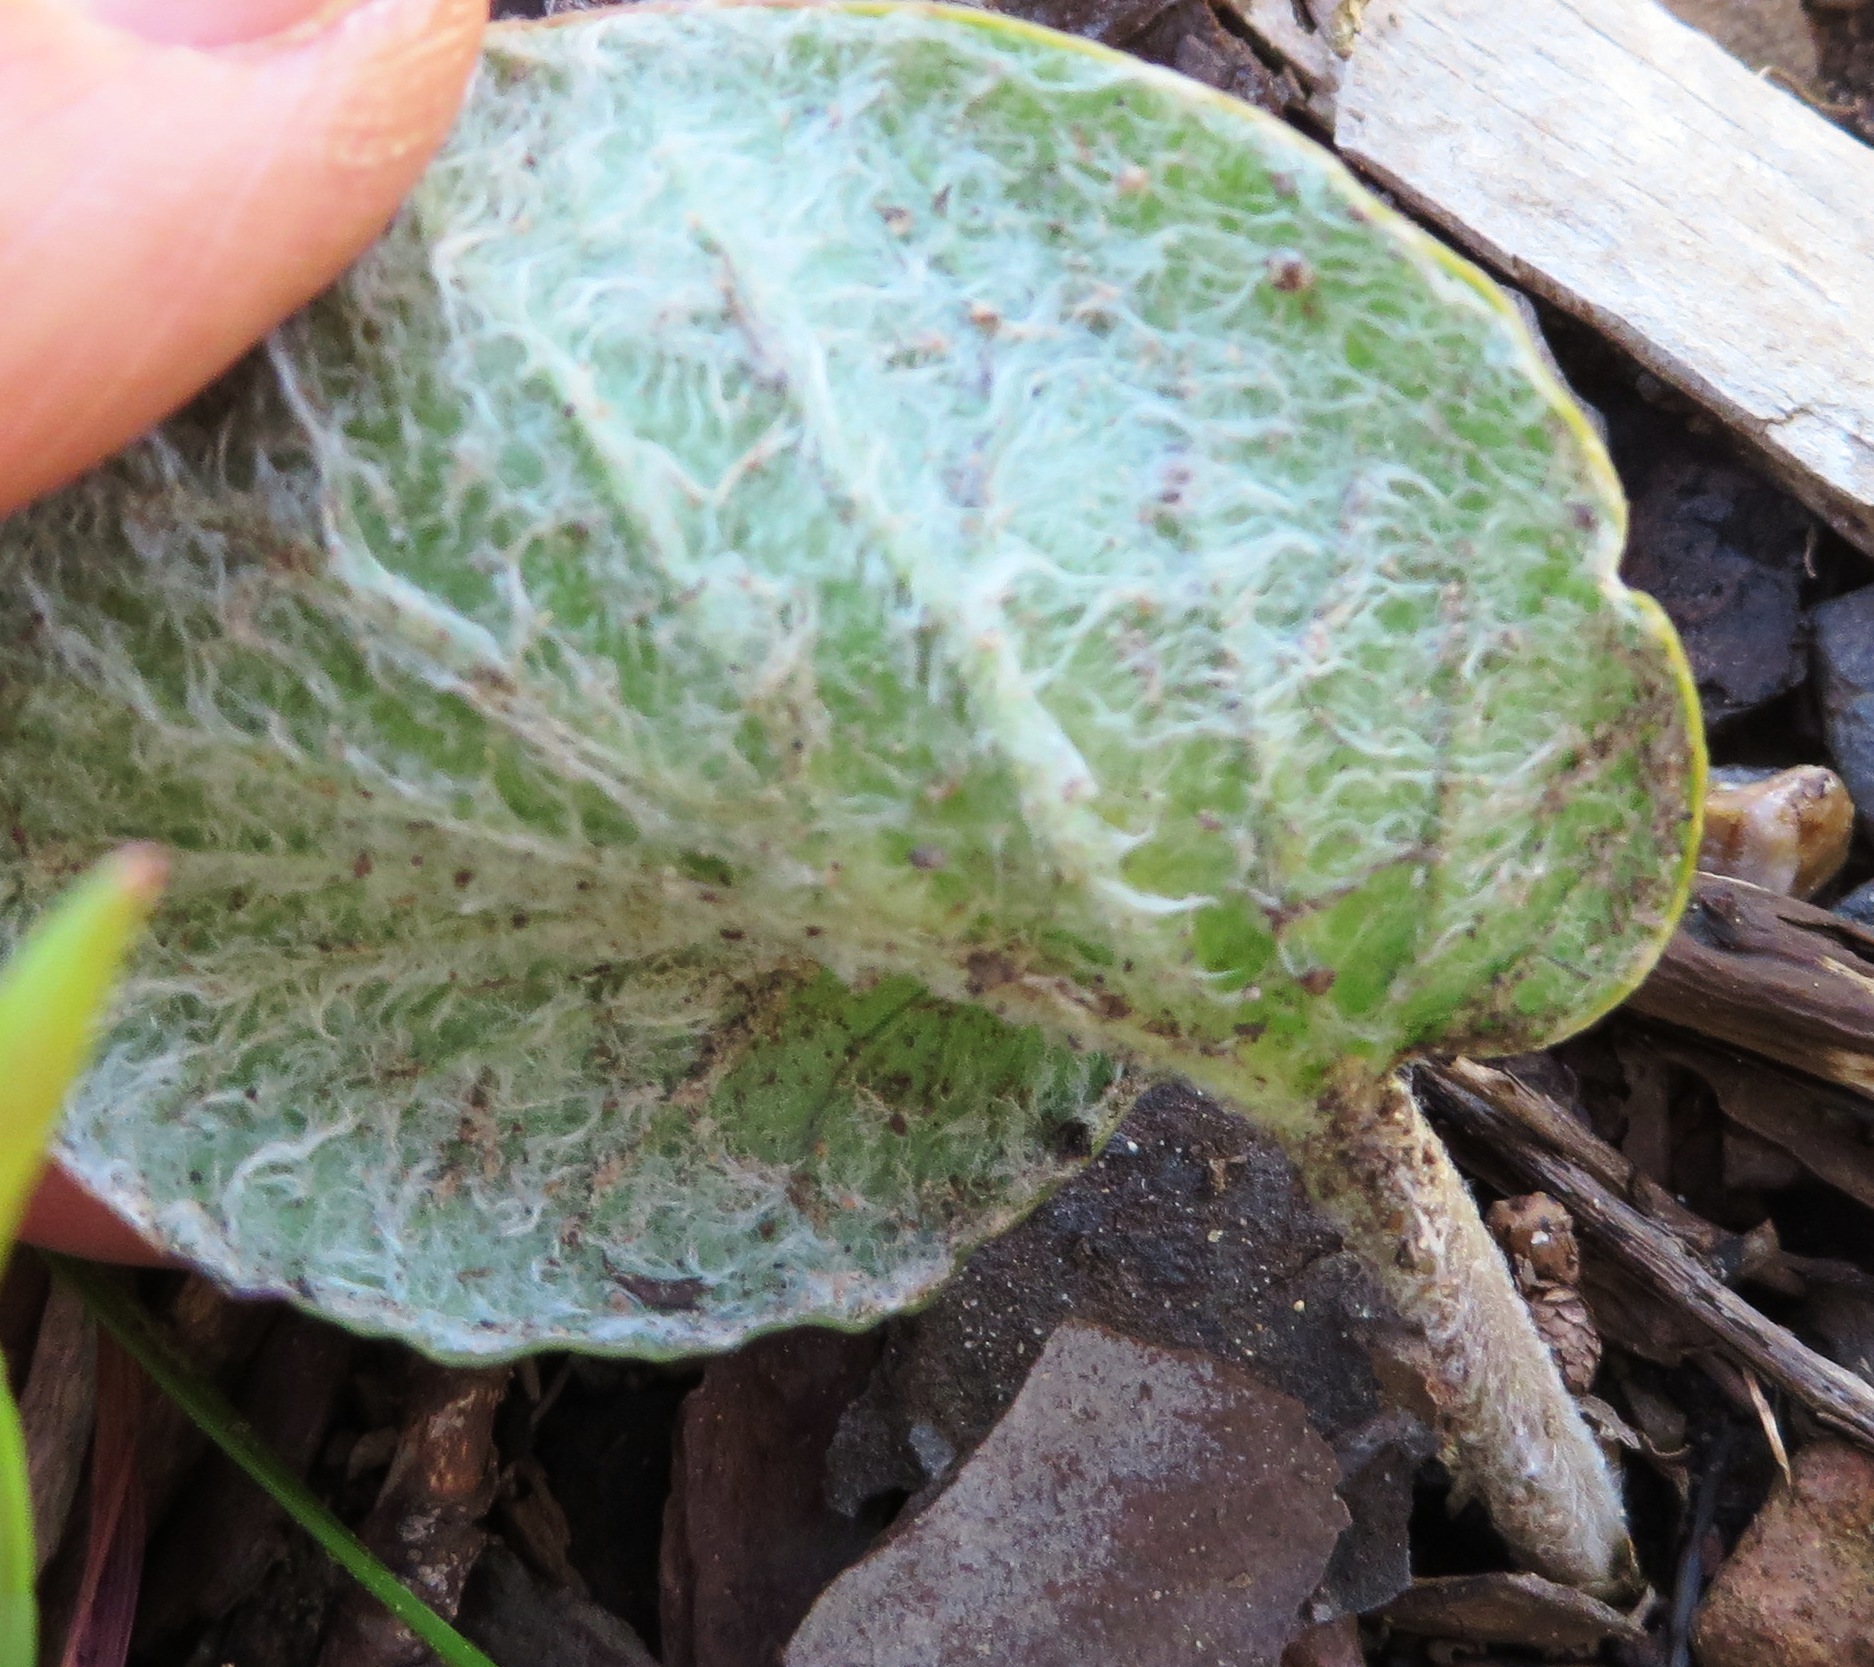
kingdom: Plantae
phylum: Tracheophyta
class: Magnoliopsida
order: Geraniales
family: Geraniaceae
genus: Pelargonium
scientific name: Pelargonium asarifolium
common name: Asarum-leaf pelargonium
